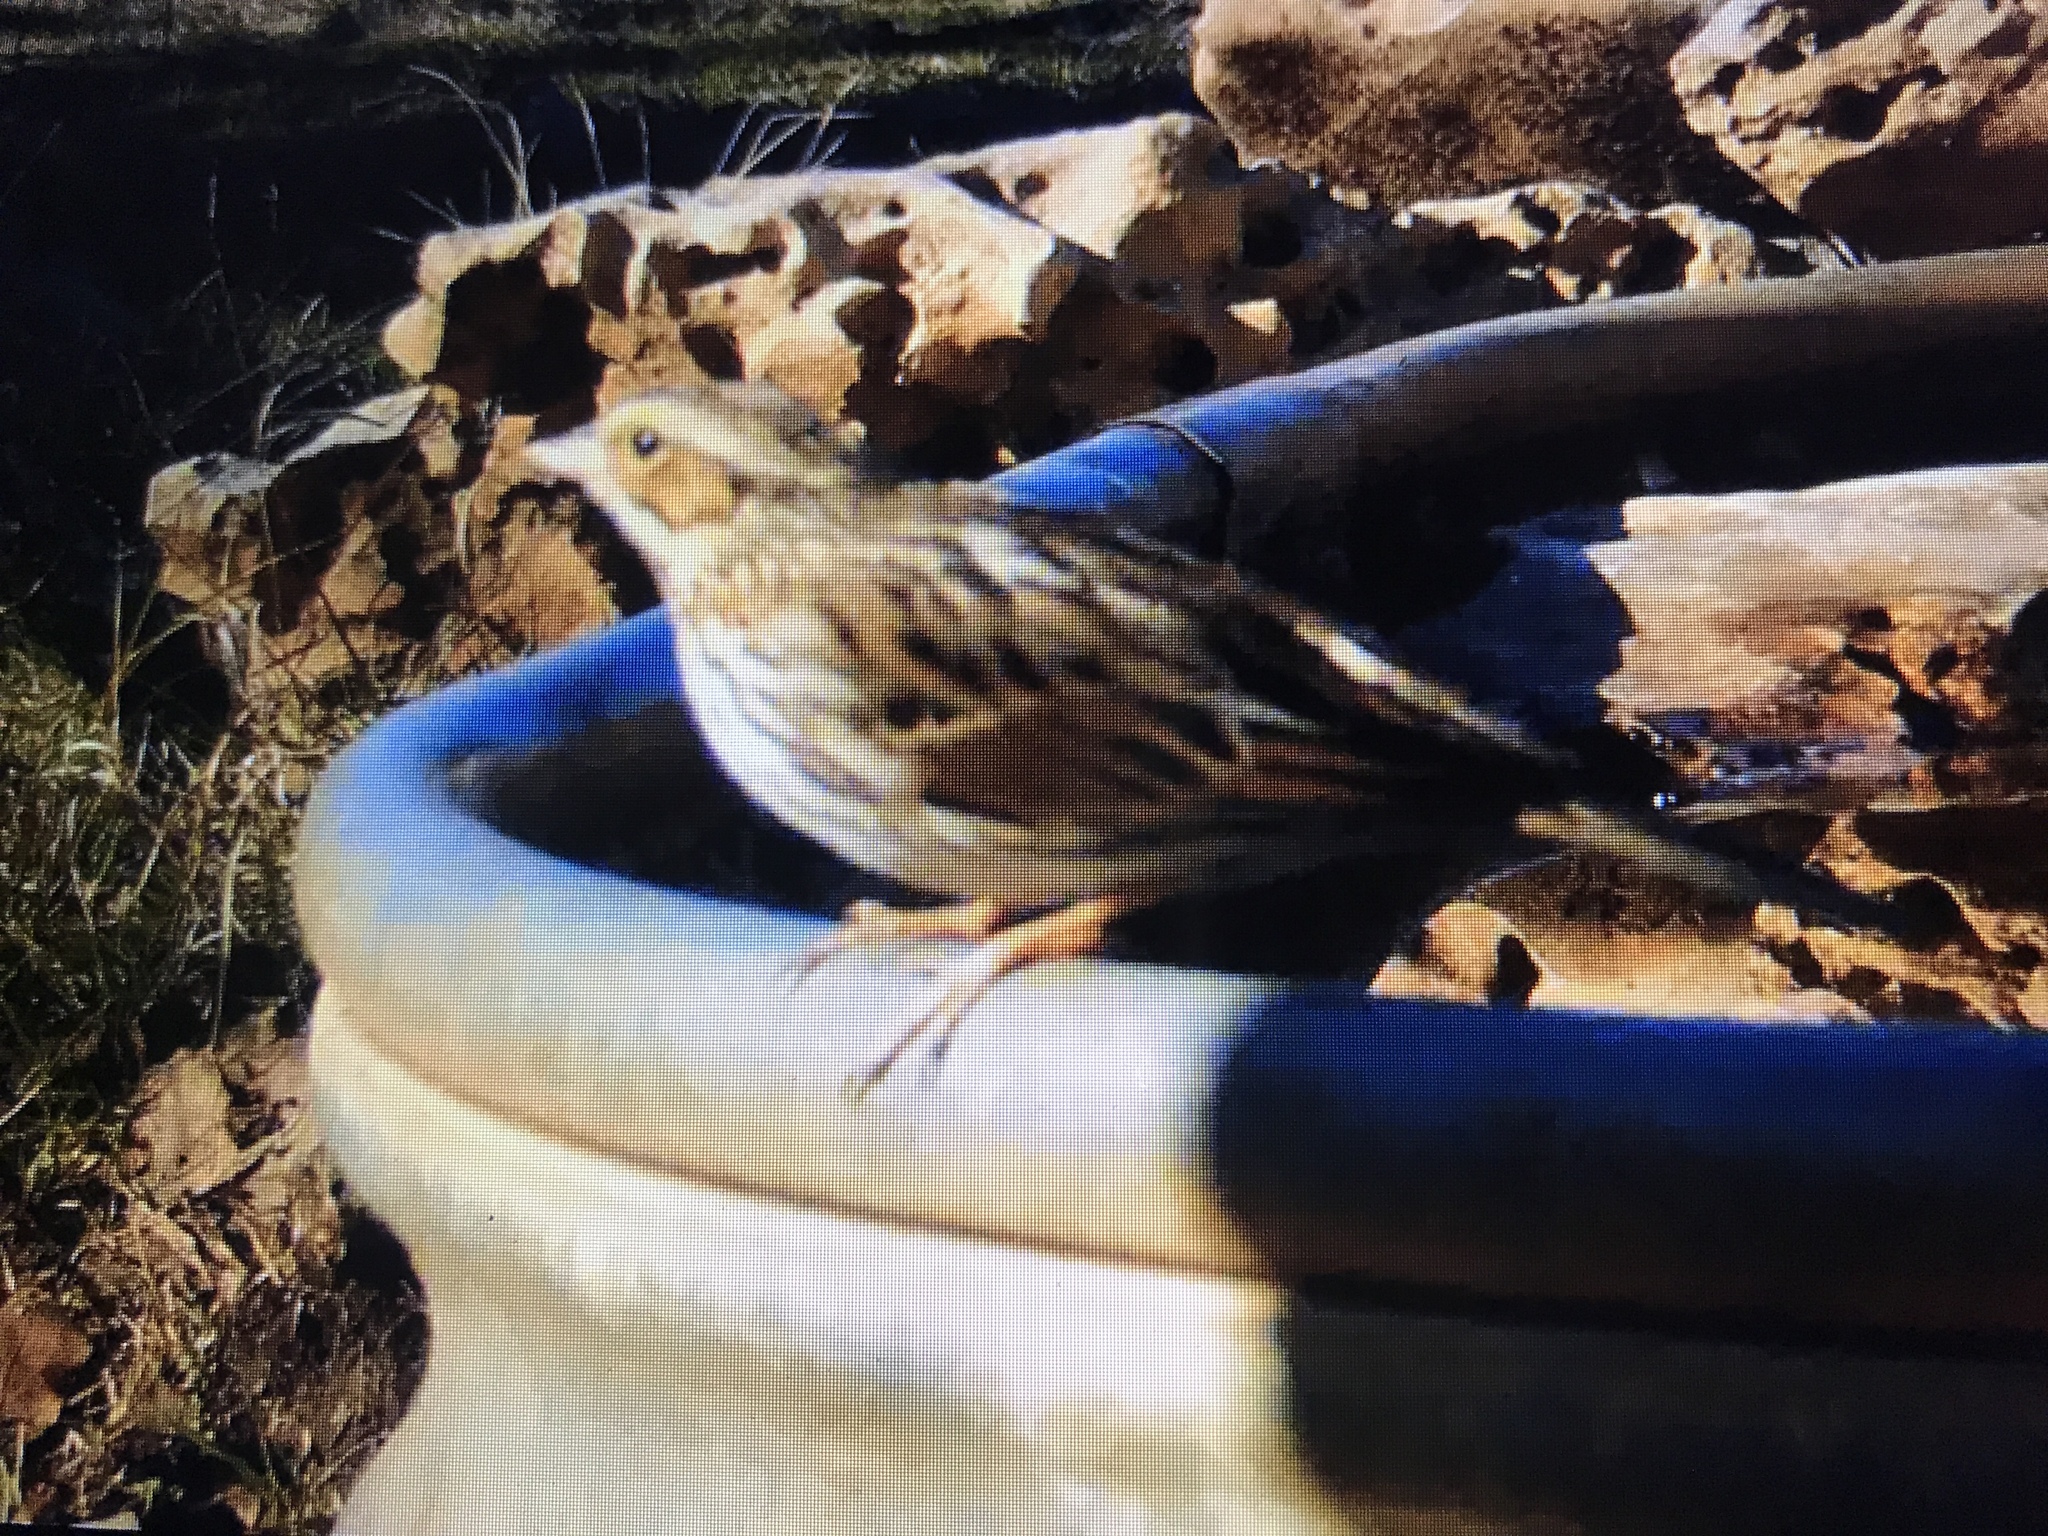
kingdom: Animalia
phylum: Chordata
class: Aves
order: Passeriformes
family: Passerellidae
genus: Passerculus
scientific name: Passerculus sandwichensis
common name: Savannah sparrow
